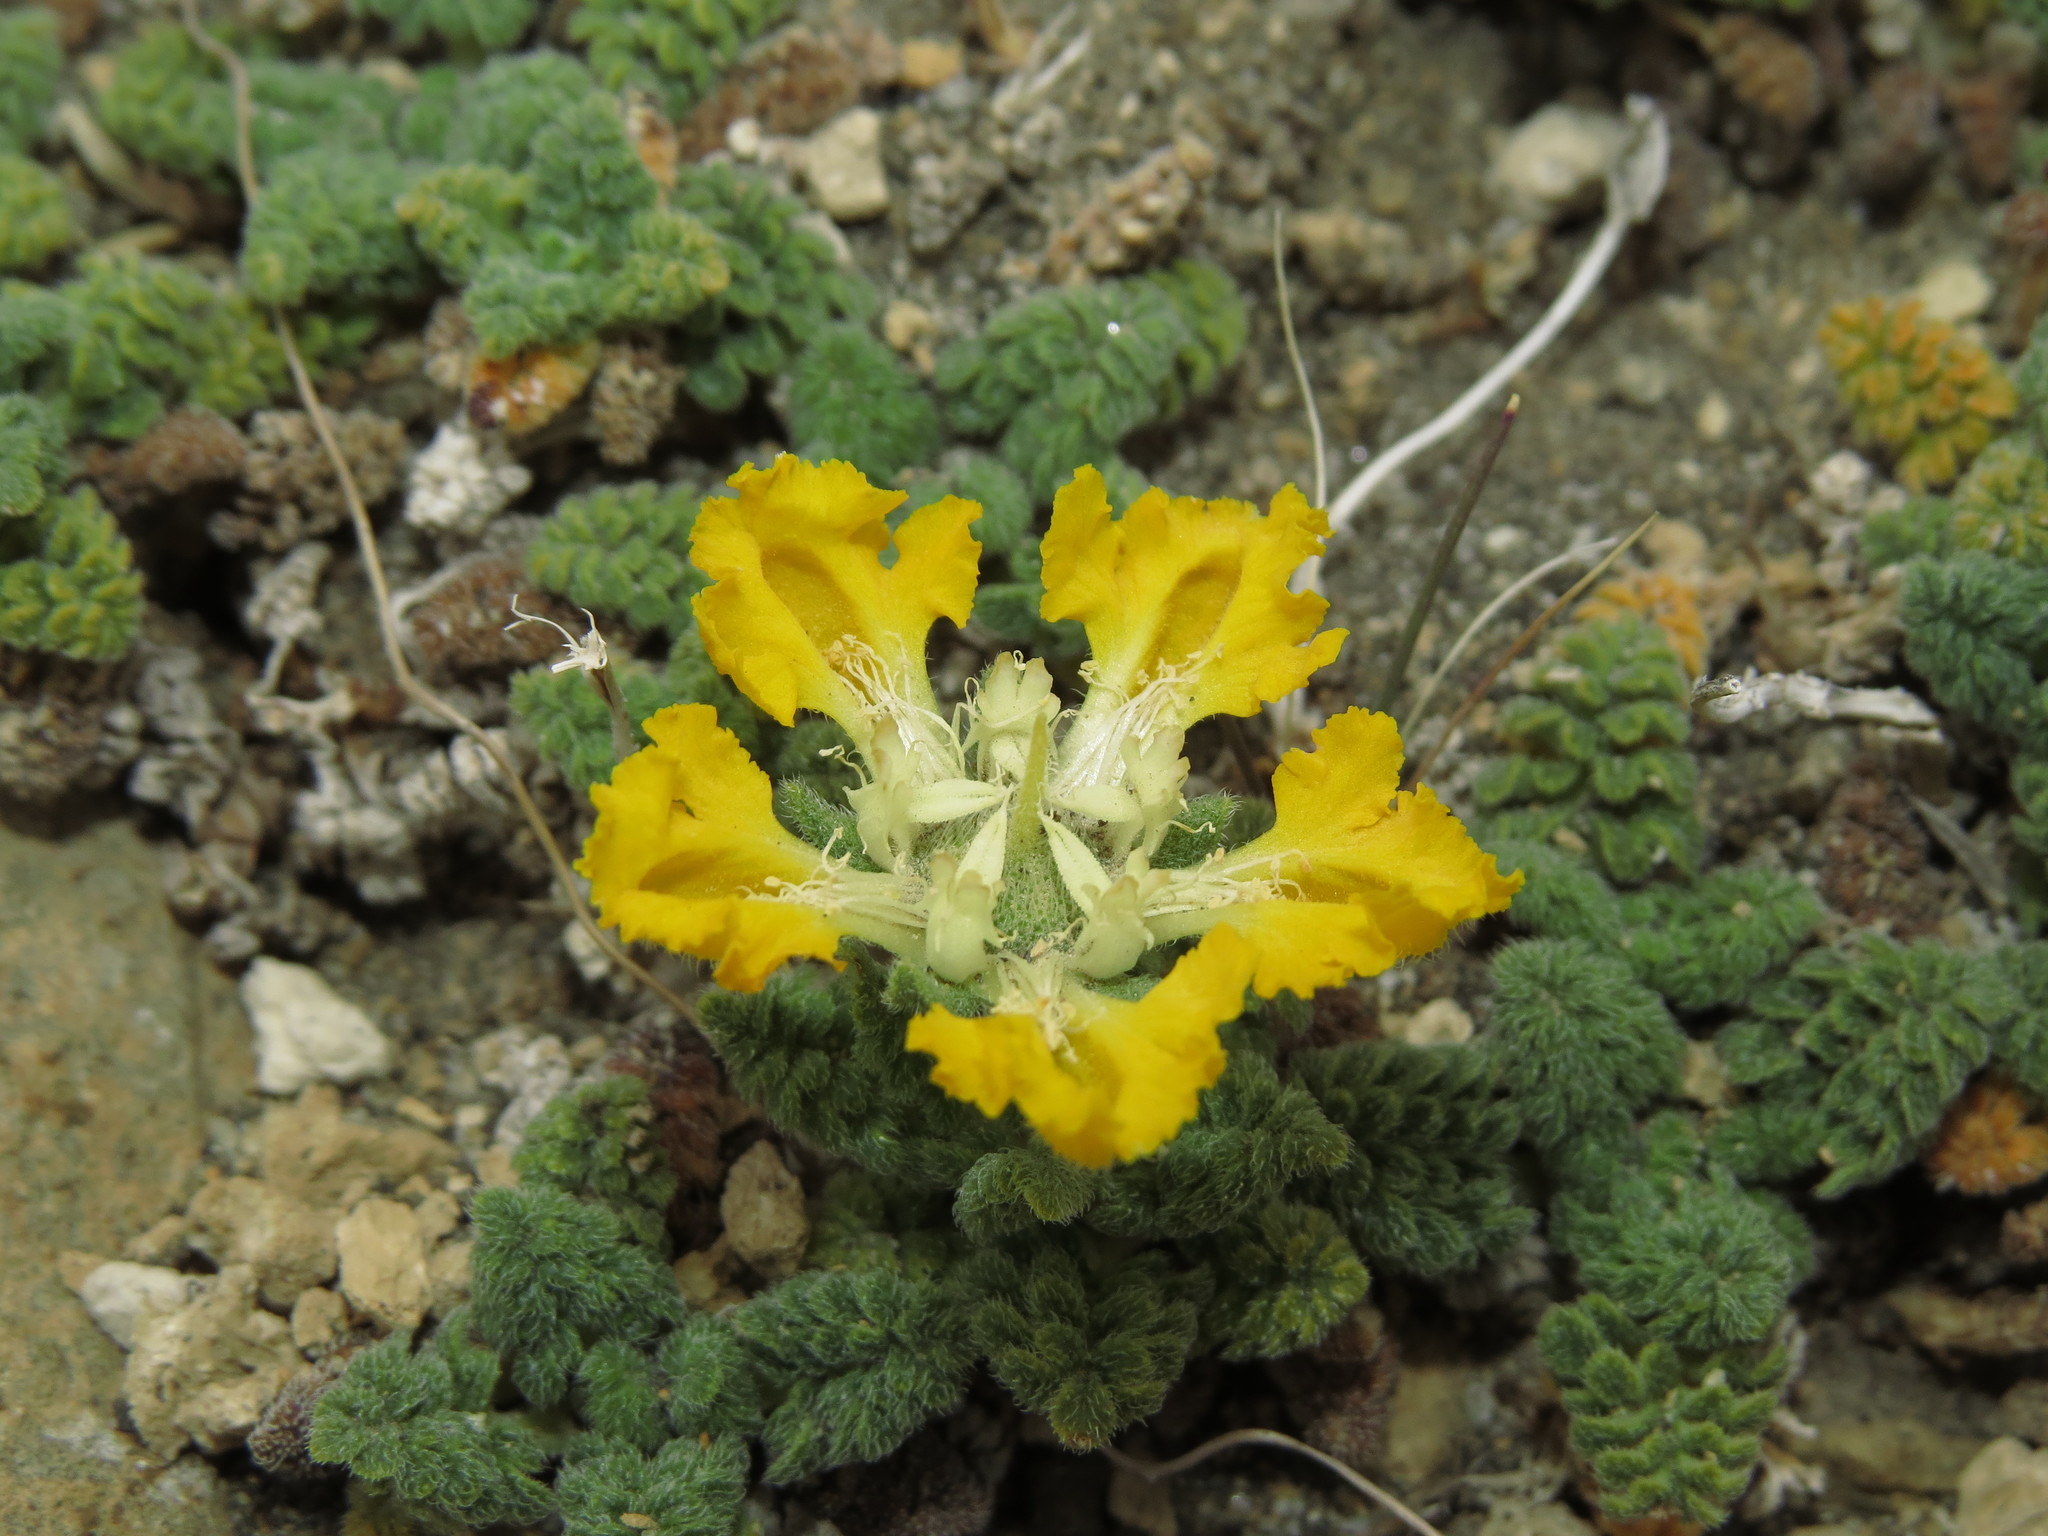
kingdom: Plantae
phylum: Tracheophyta
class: Magnoliopsida
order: Cornales
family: Loasaceae
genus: Pinnasa
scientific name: Pinnasa nana
